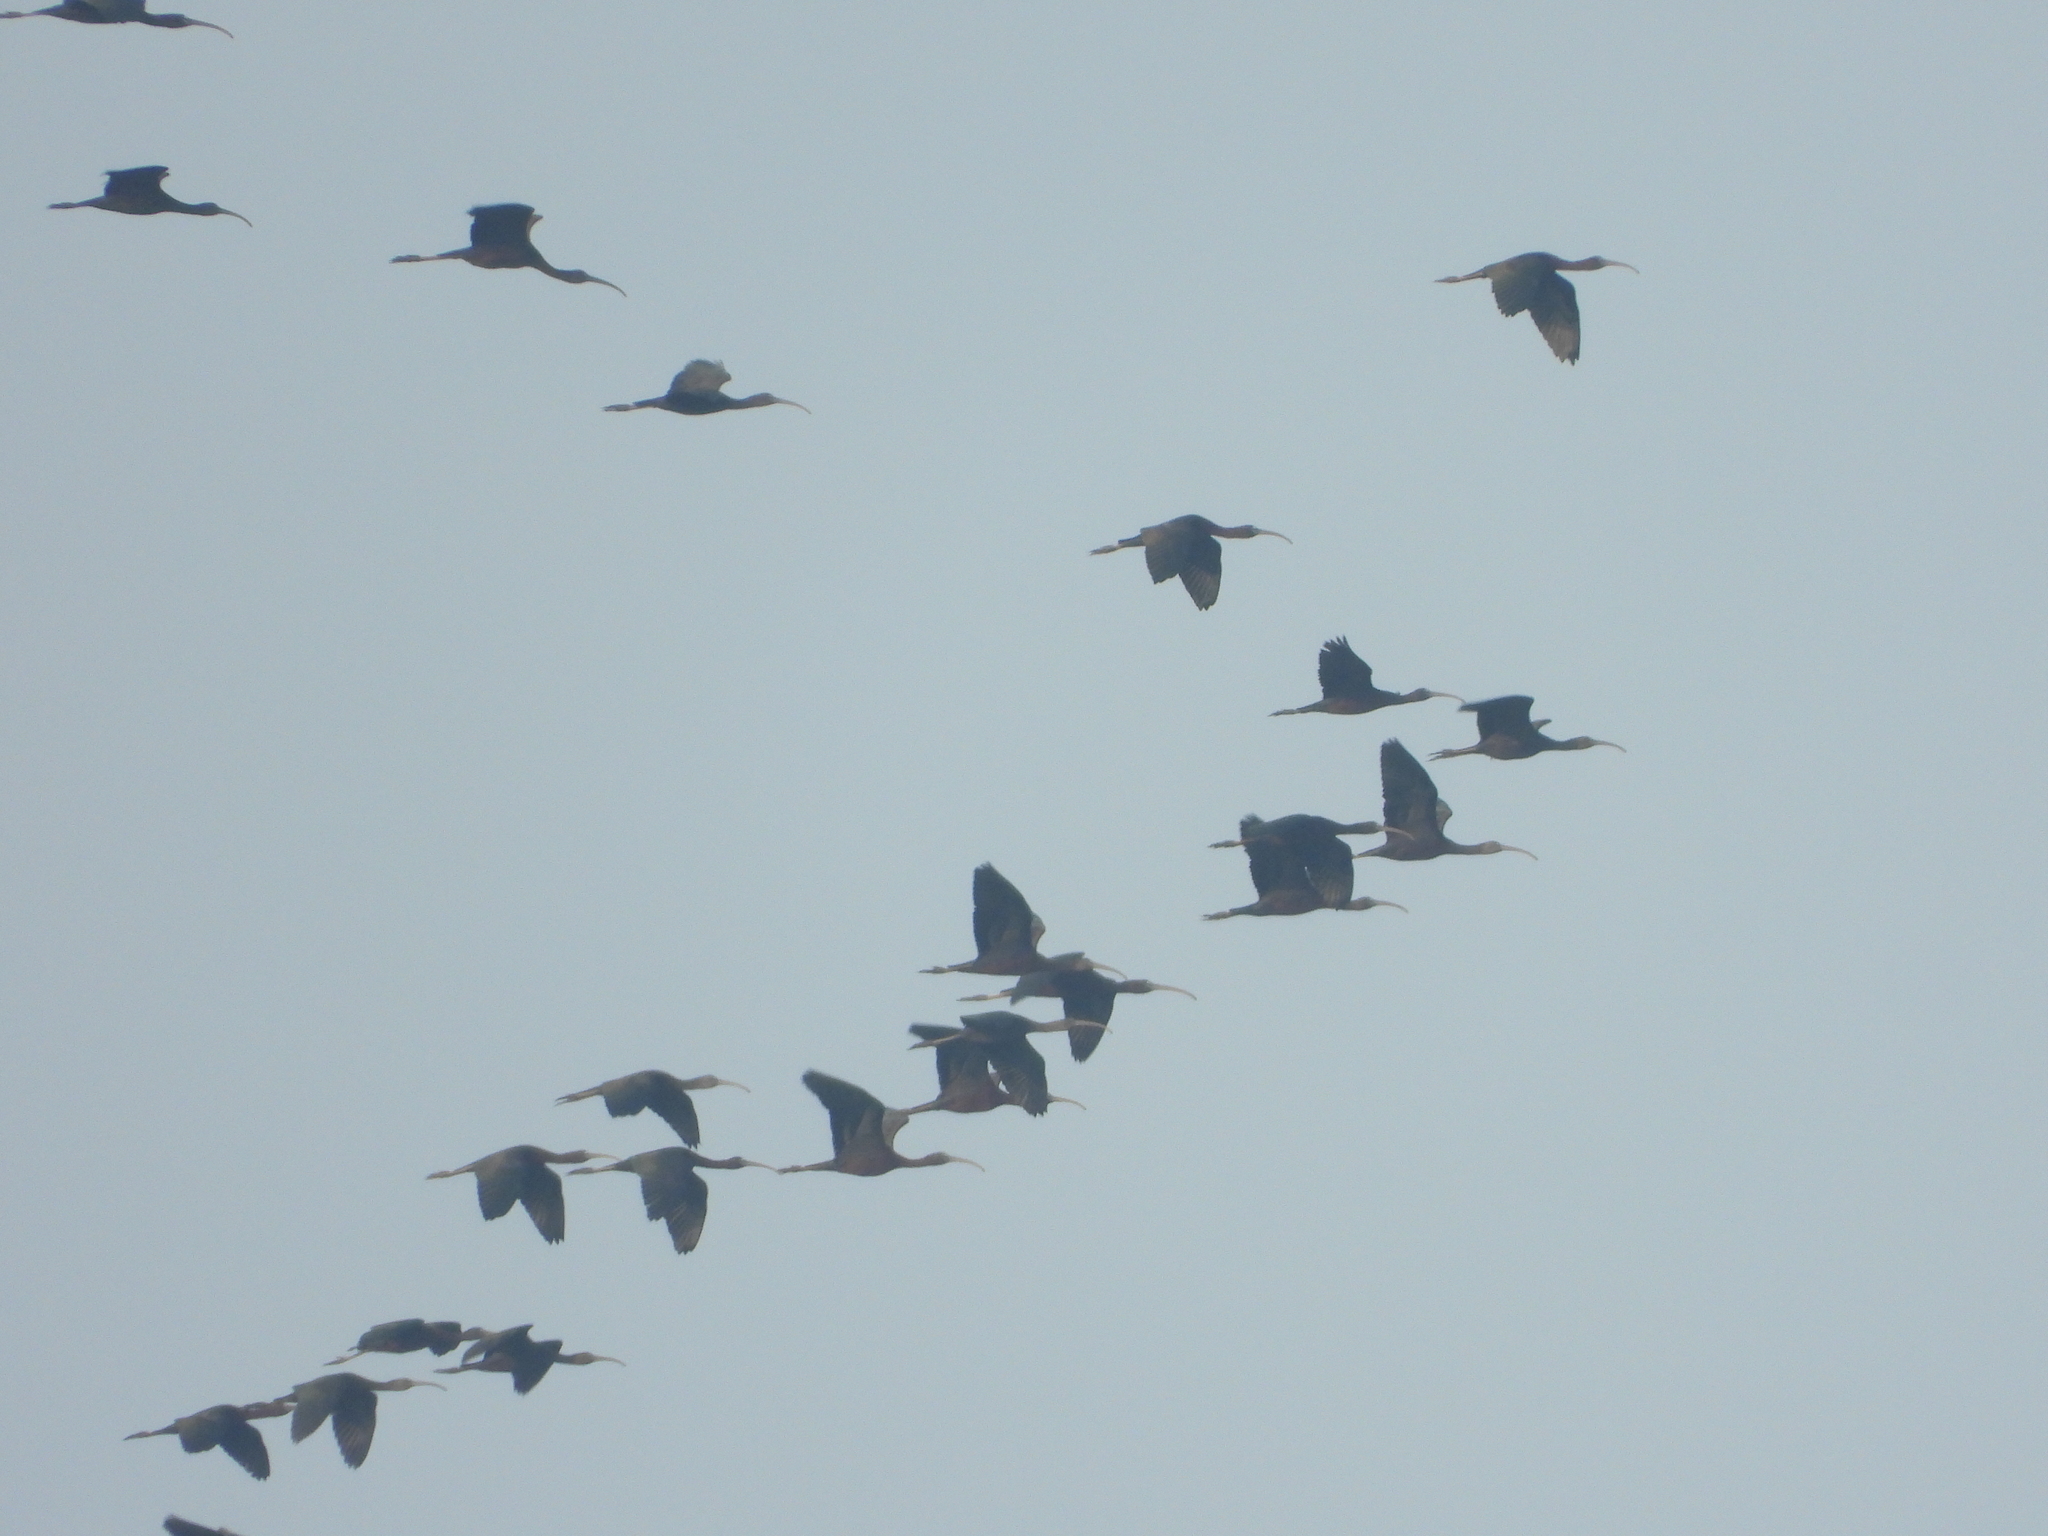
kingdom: Animalia
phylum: Chordata
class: Aves
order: Pelecaniformes
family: Threskiornithidae
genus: Plegadis
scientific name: Plegadis falcinellus
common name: Glossy ibis
